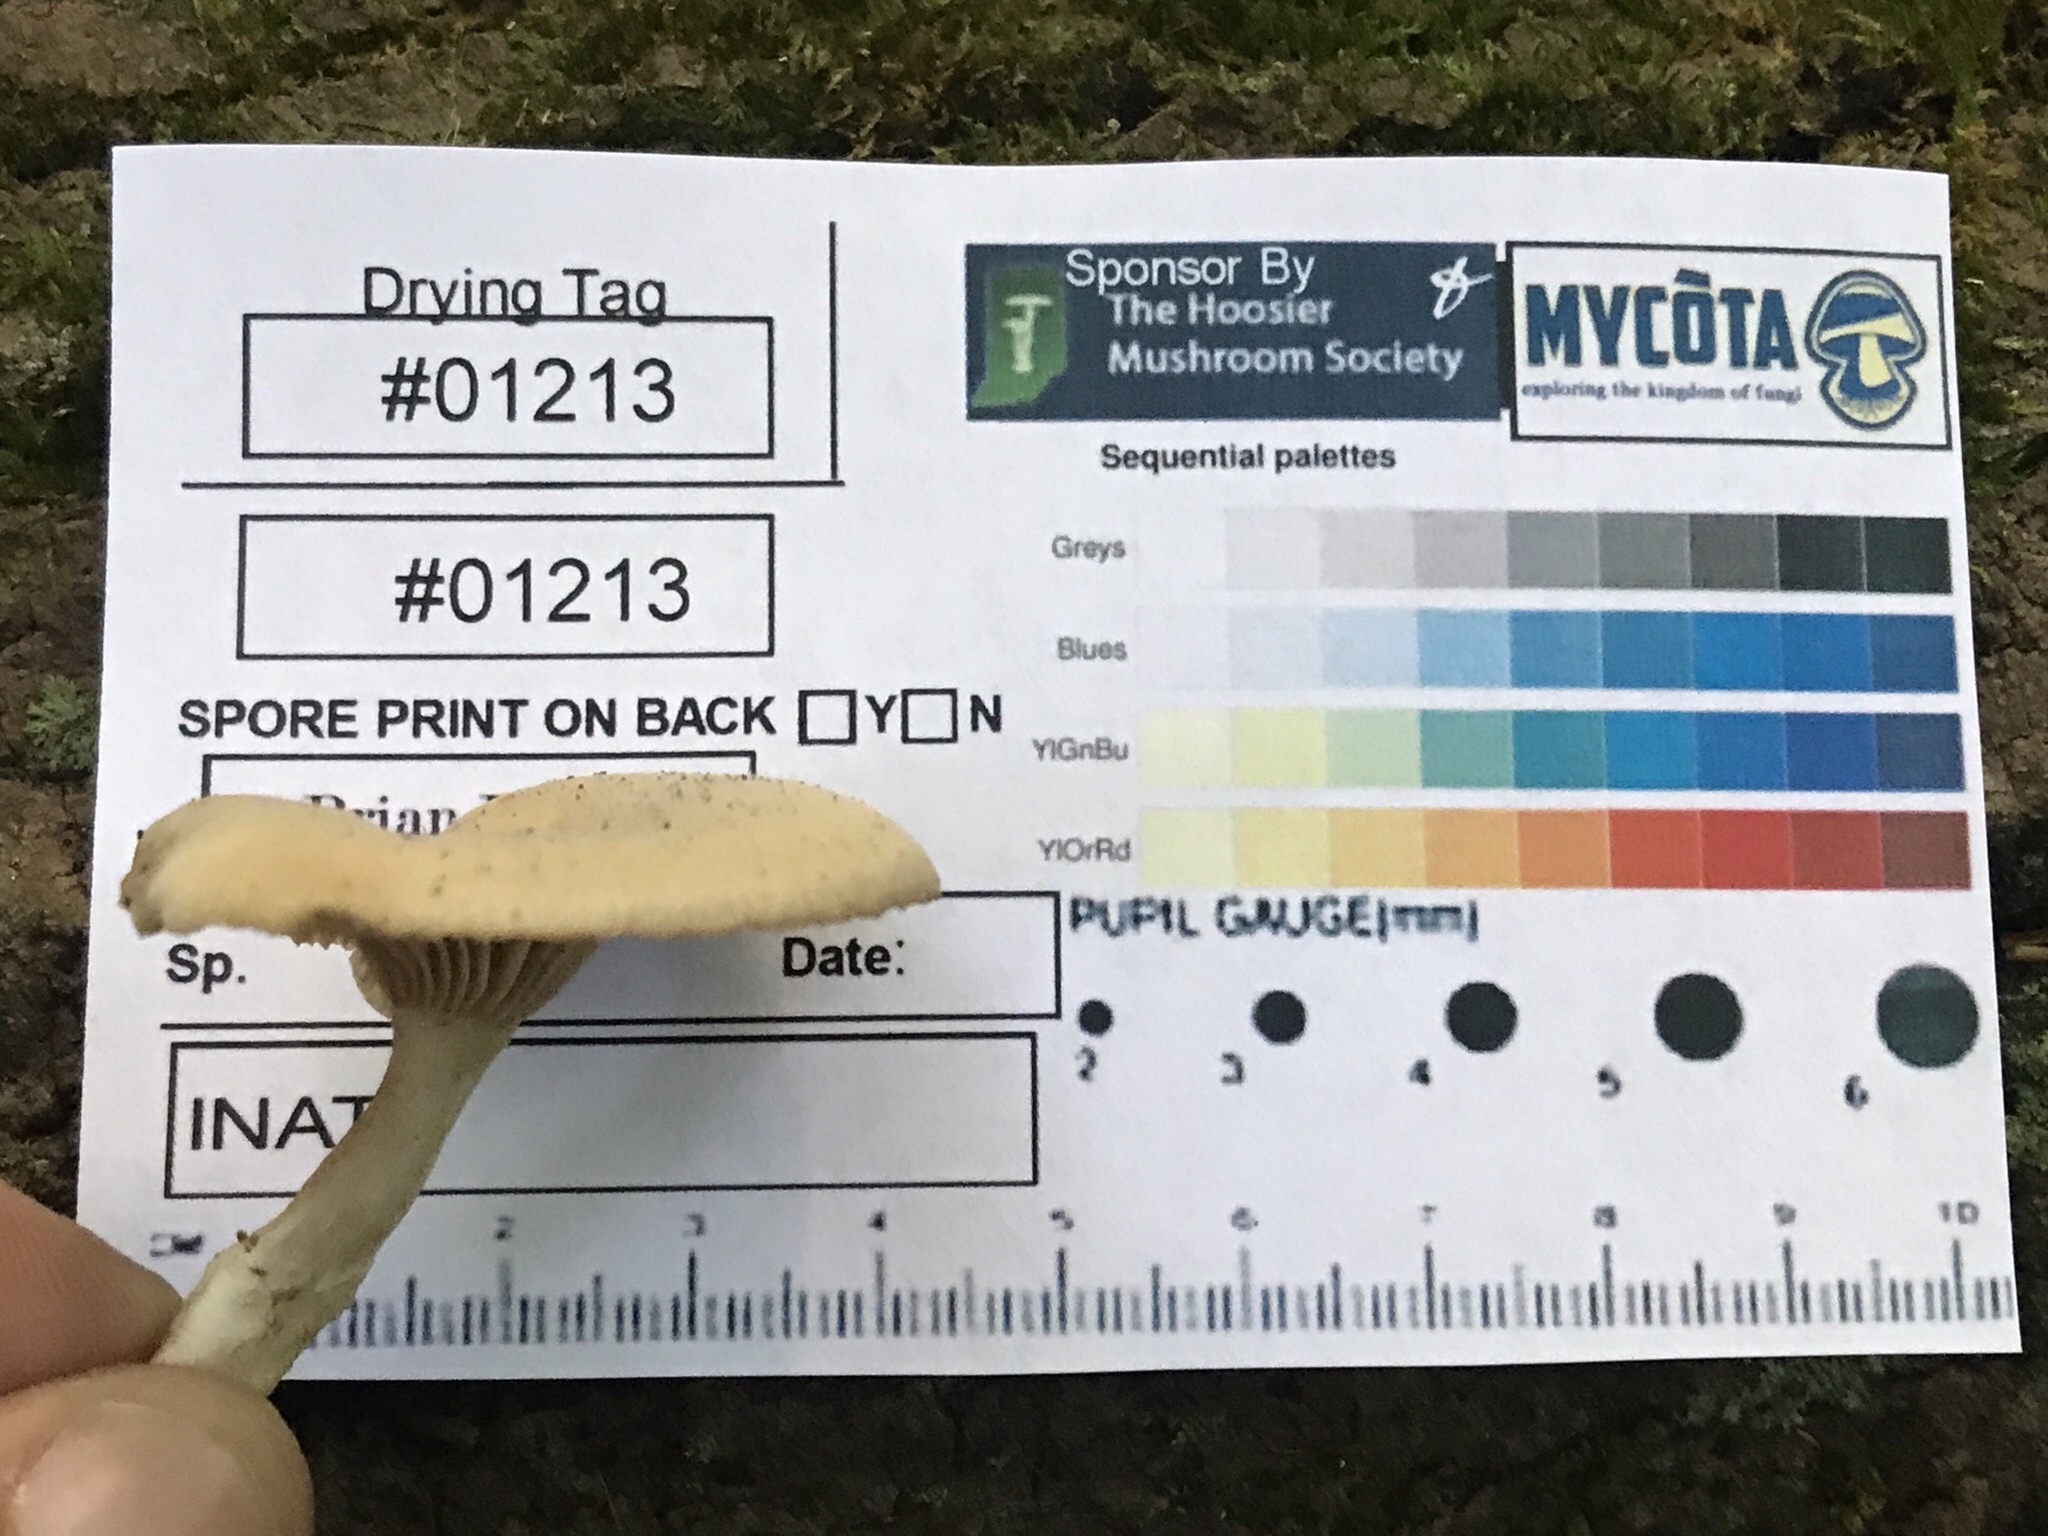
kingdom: Fungi
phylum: Basidiomycota
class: Agaricomycetes
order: Agaricales
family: Pseudoclitocybaceae
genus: Pseudoclitocybe
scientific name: Pseudoclitocybe cyathiformis
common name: Goblet
